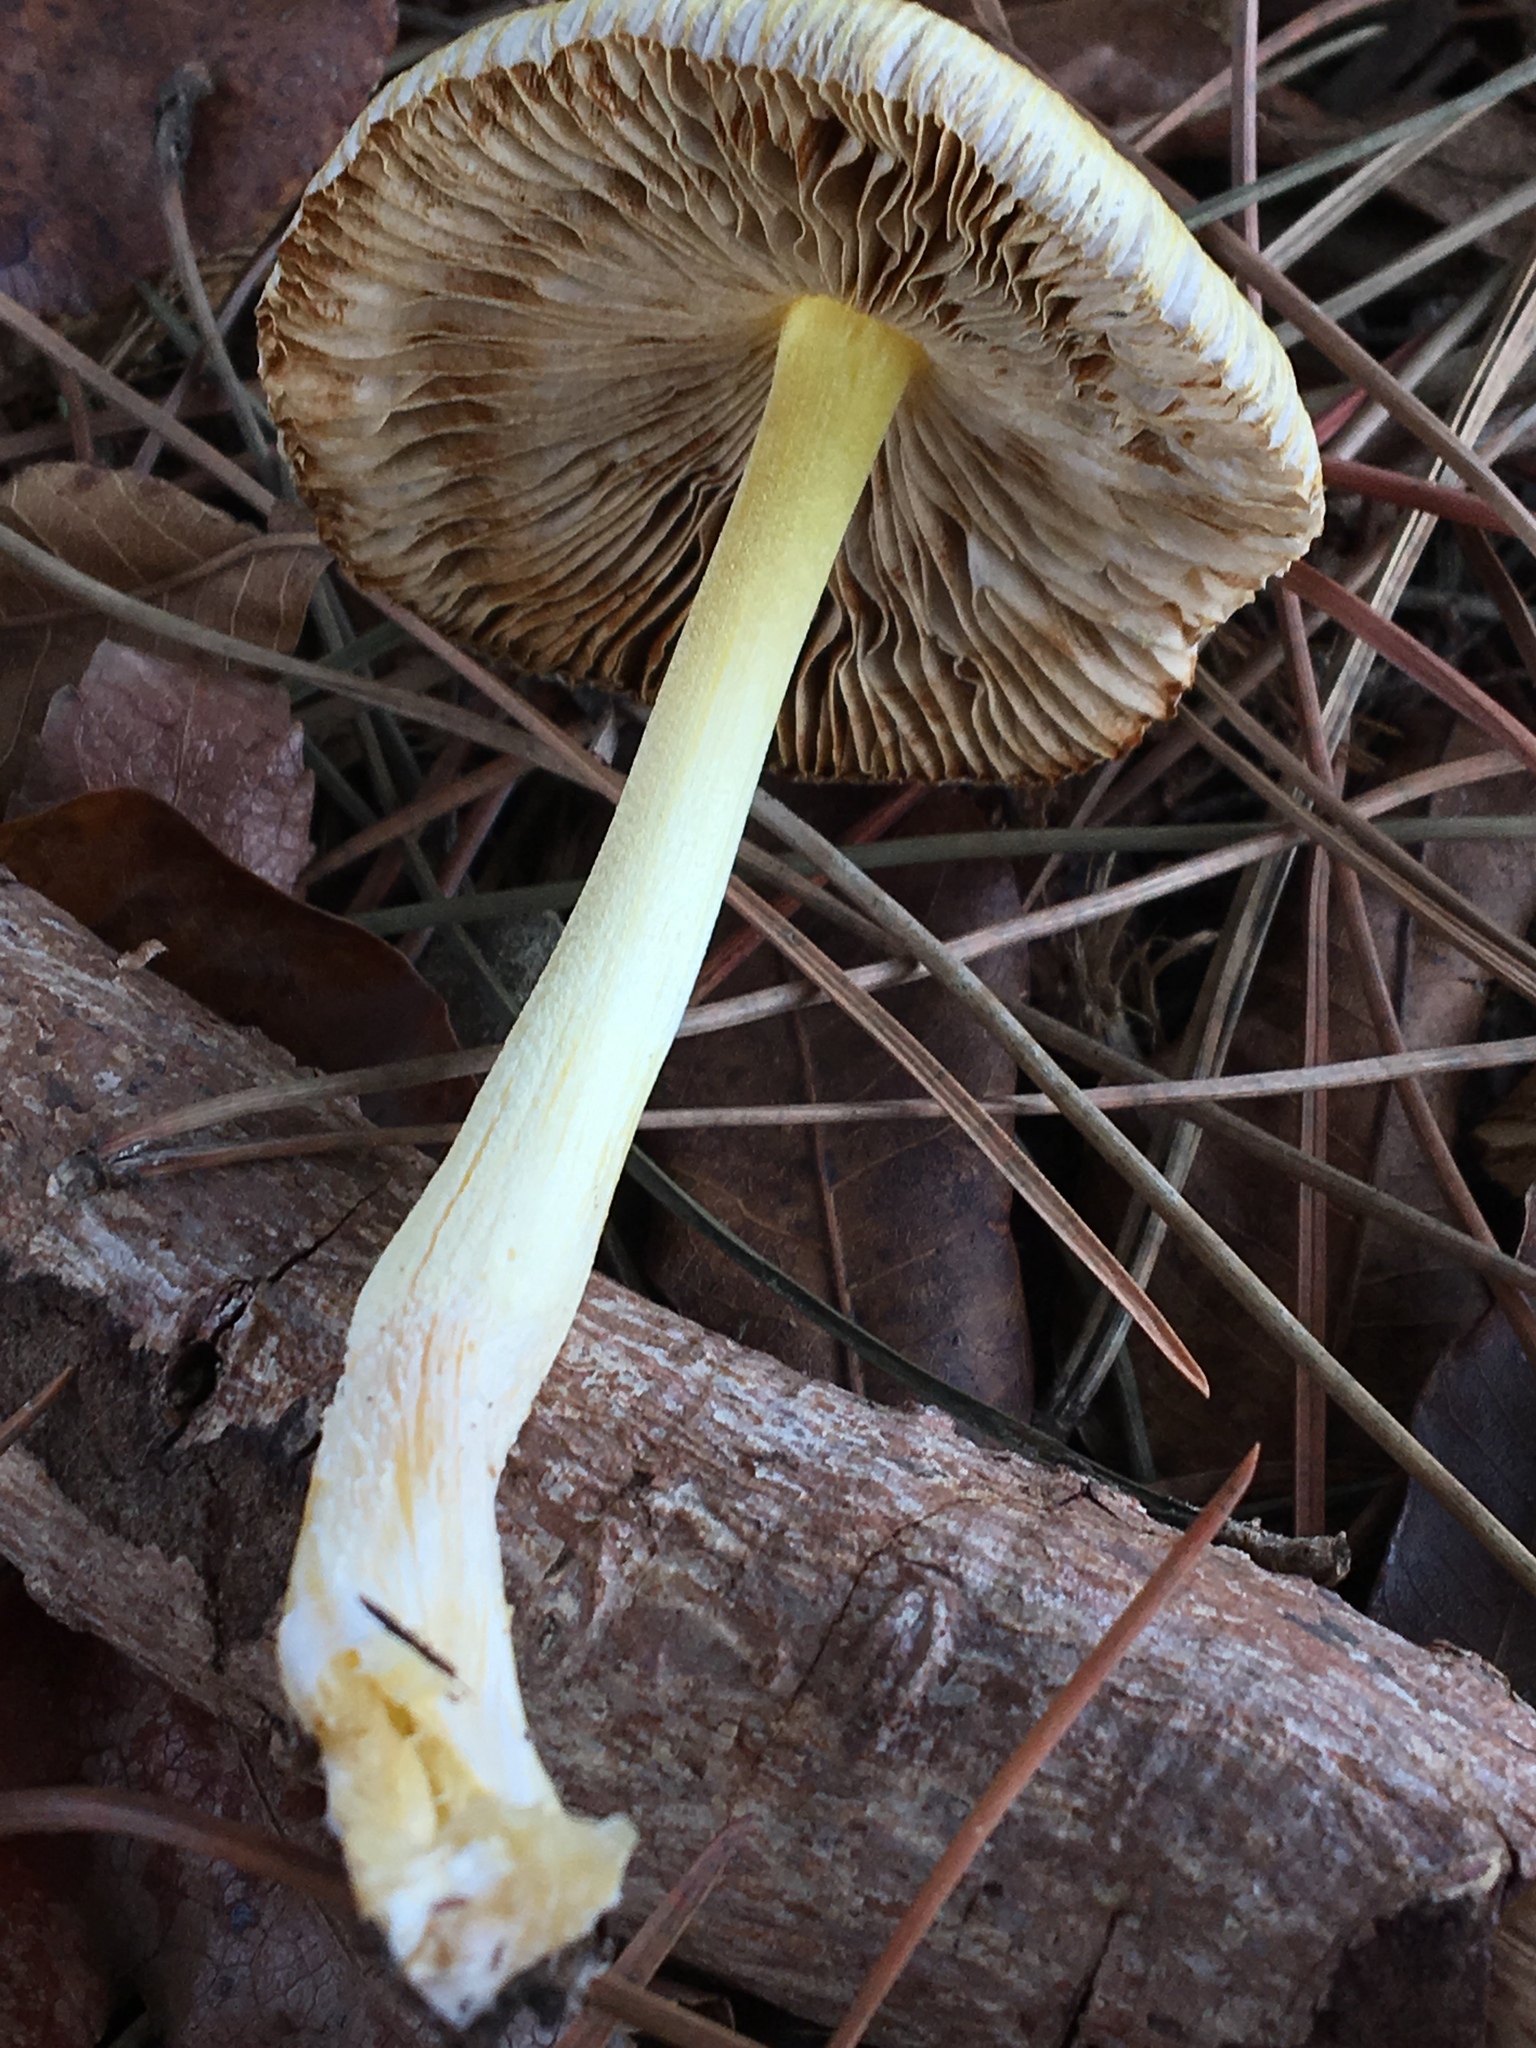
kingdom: Fungi
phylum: Basidiomycota
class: Agaricomycetes
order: Agaricales
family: Bolbitiaceae
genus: Bolbitius
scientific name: Bolbitius titubans
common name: Yellow fieldcap
